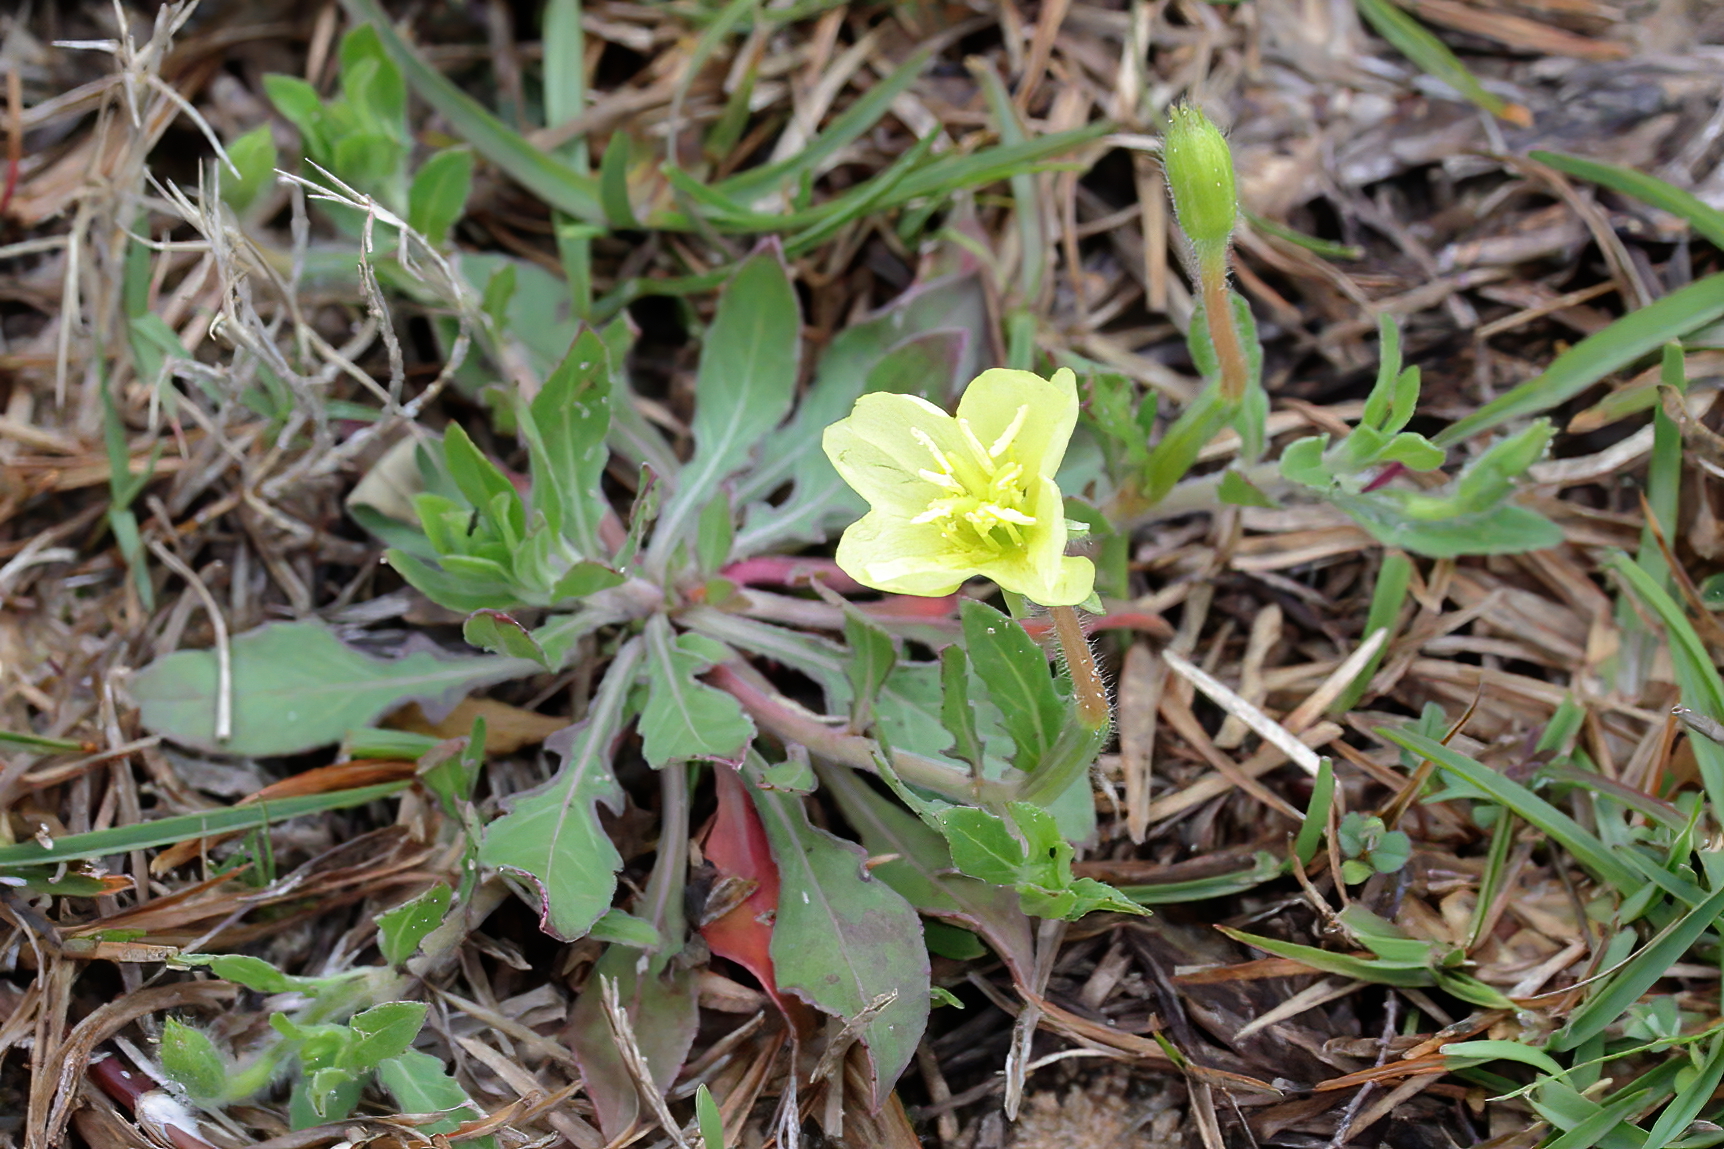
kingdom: Plantae
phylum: Tracheophyta
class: Magnoliopsida
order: Myrtales
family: Onagraceae
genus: Oenothera
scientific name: Oenothera laciniata
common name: Cut-leaved evening-primrose
